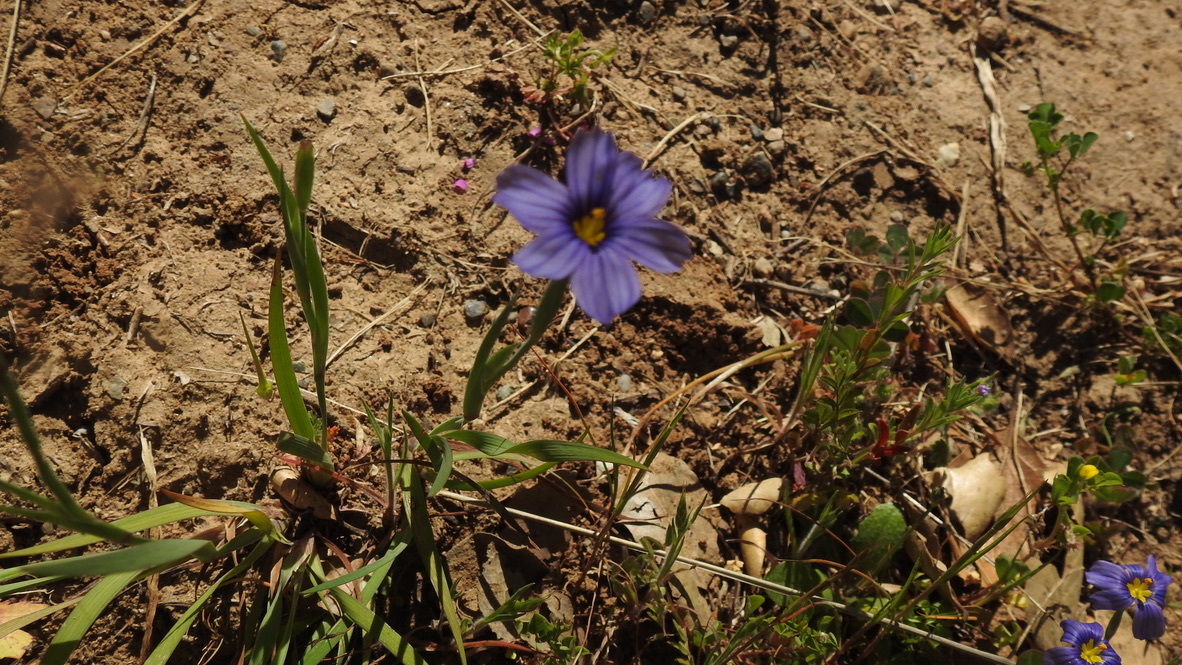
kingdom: Plantae
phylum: Tracheophyta
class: Liliopsida
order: Asparagales
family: Iridaceae
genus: Sisyrinchium
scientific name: Sisyrinchium bellum
